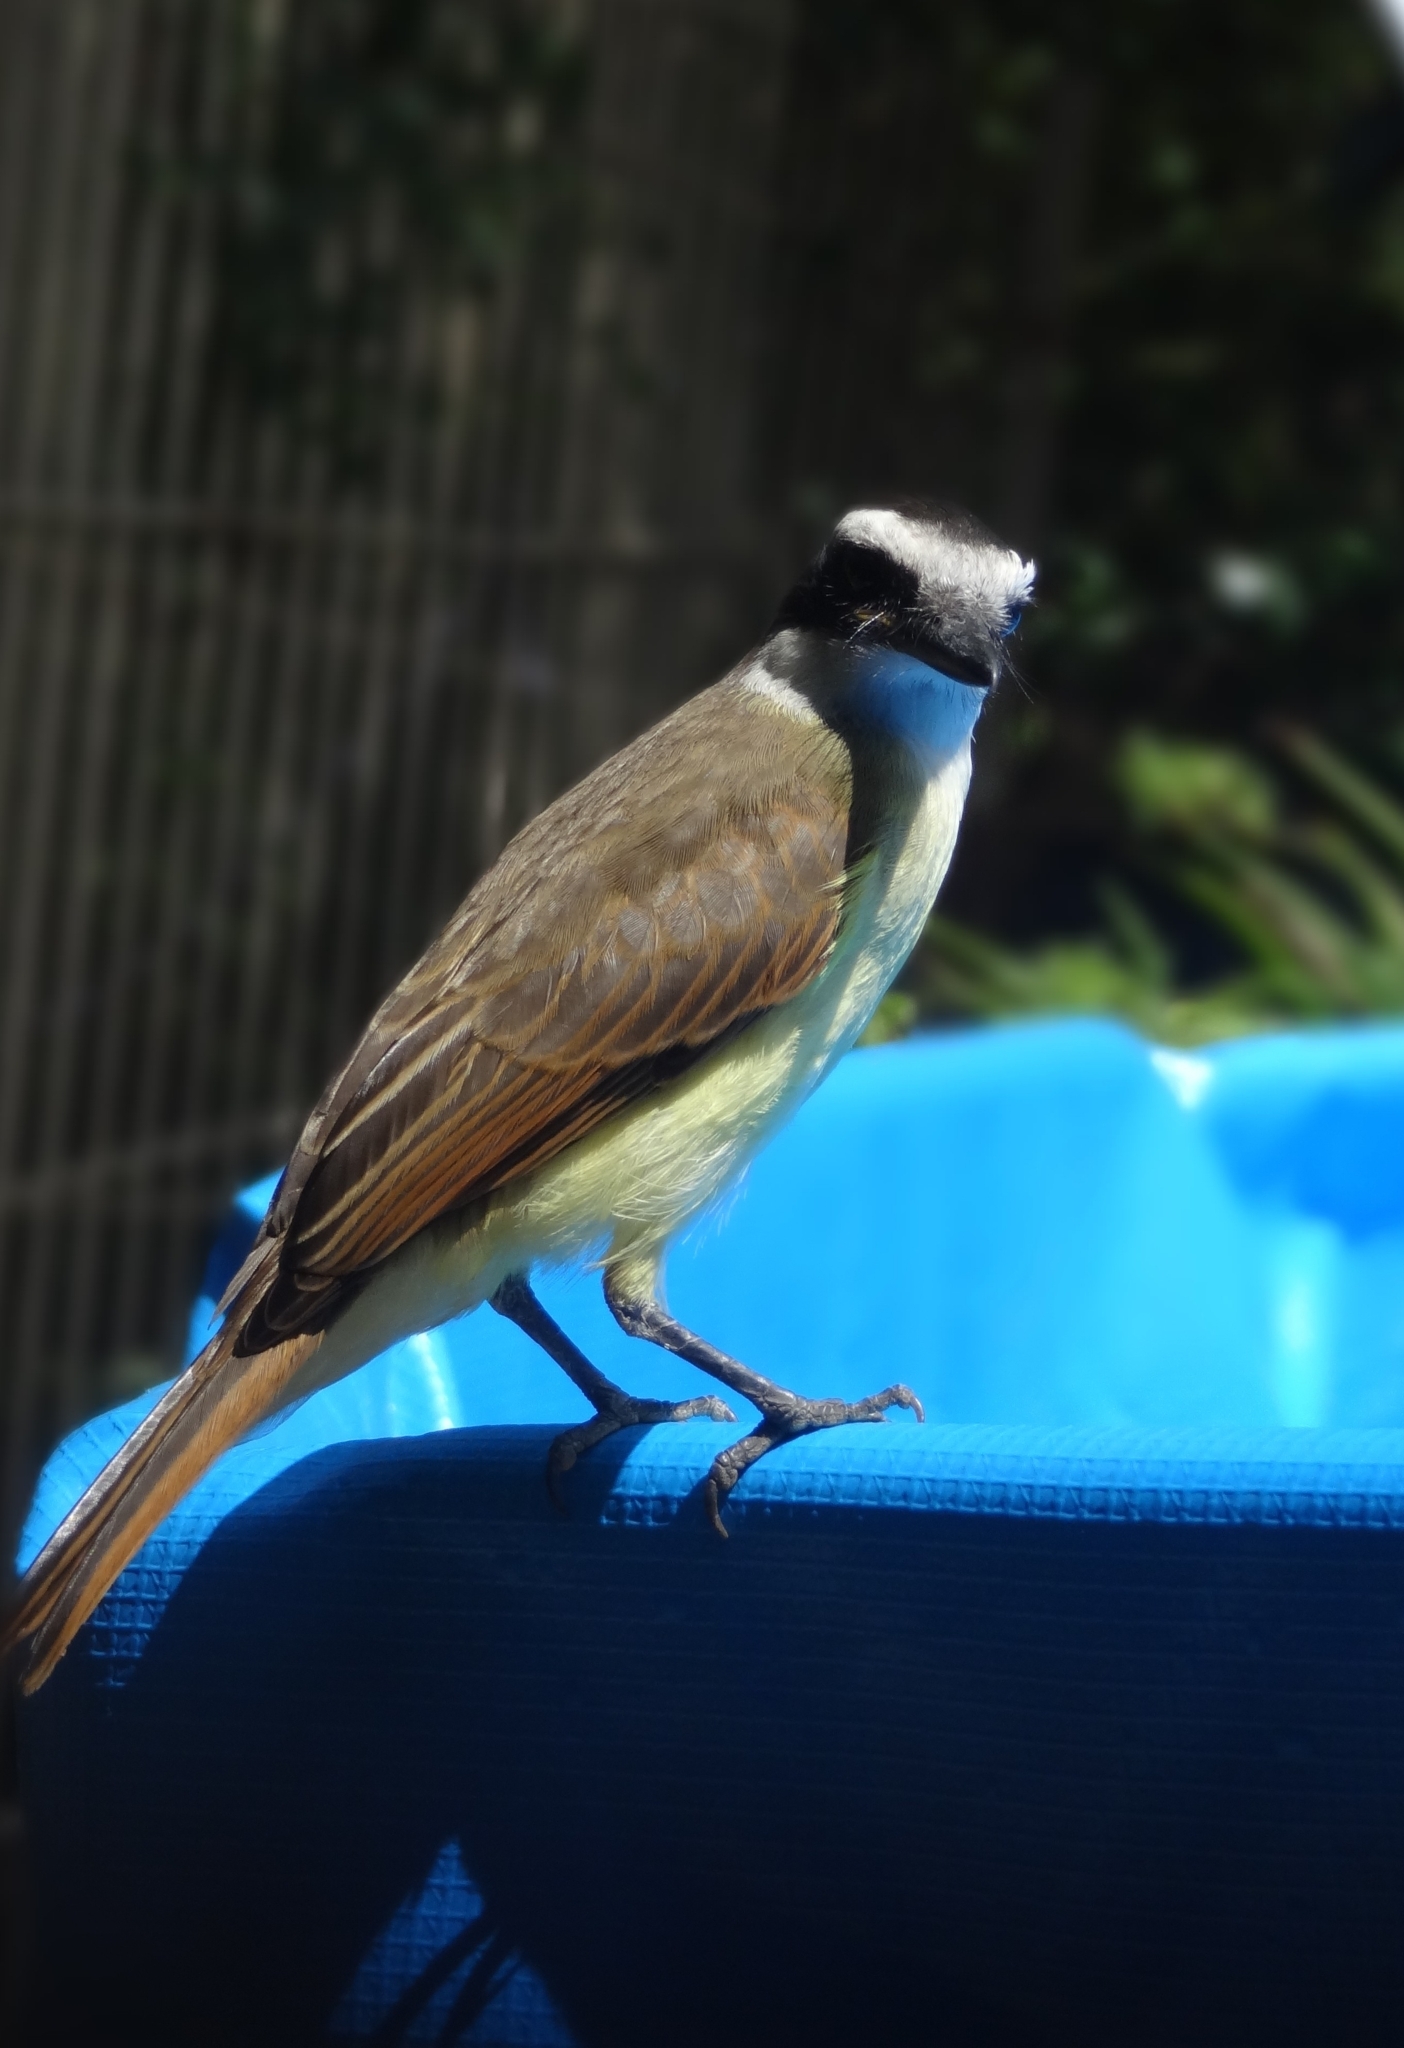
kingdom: Animalia
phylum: Chordata
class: Aves
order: Passeriformes
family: Tyrannidae
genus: Pitangus
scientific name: Pitangus sulphuratus
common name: Great kiskadee
